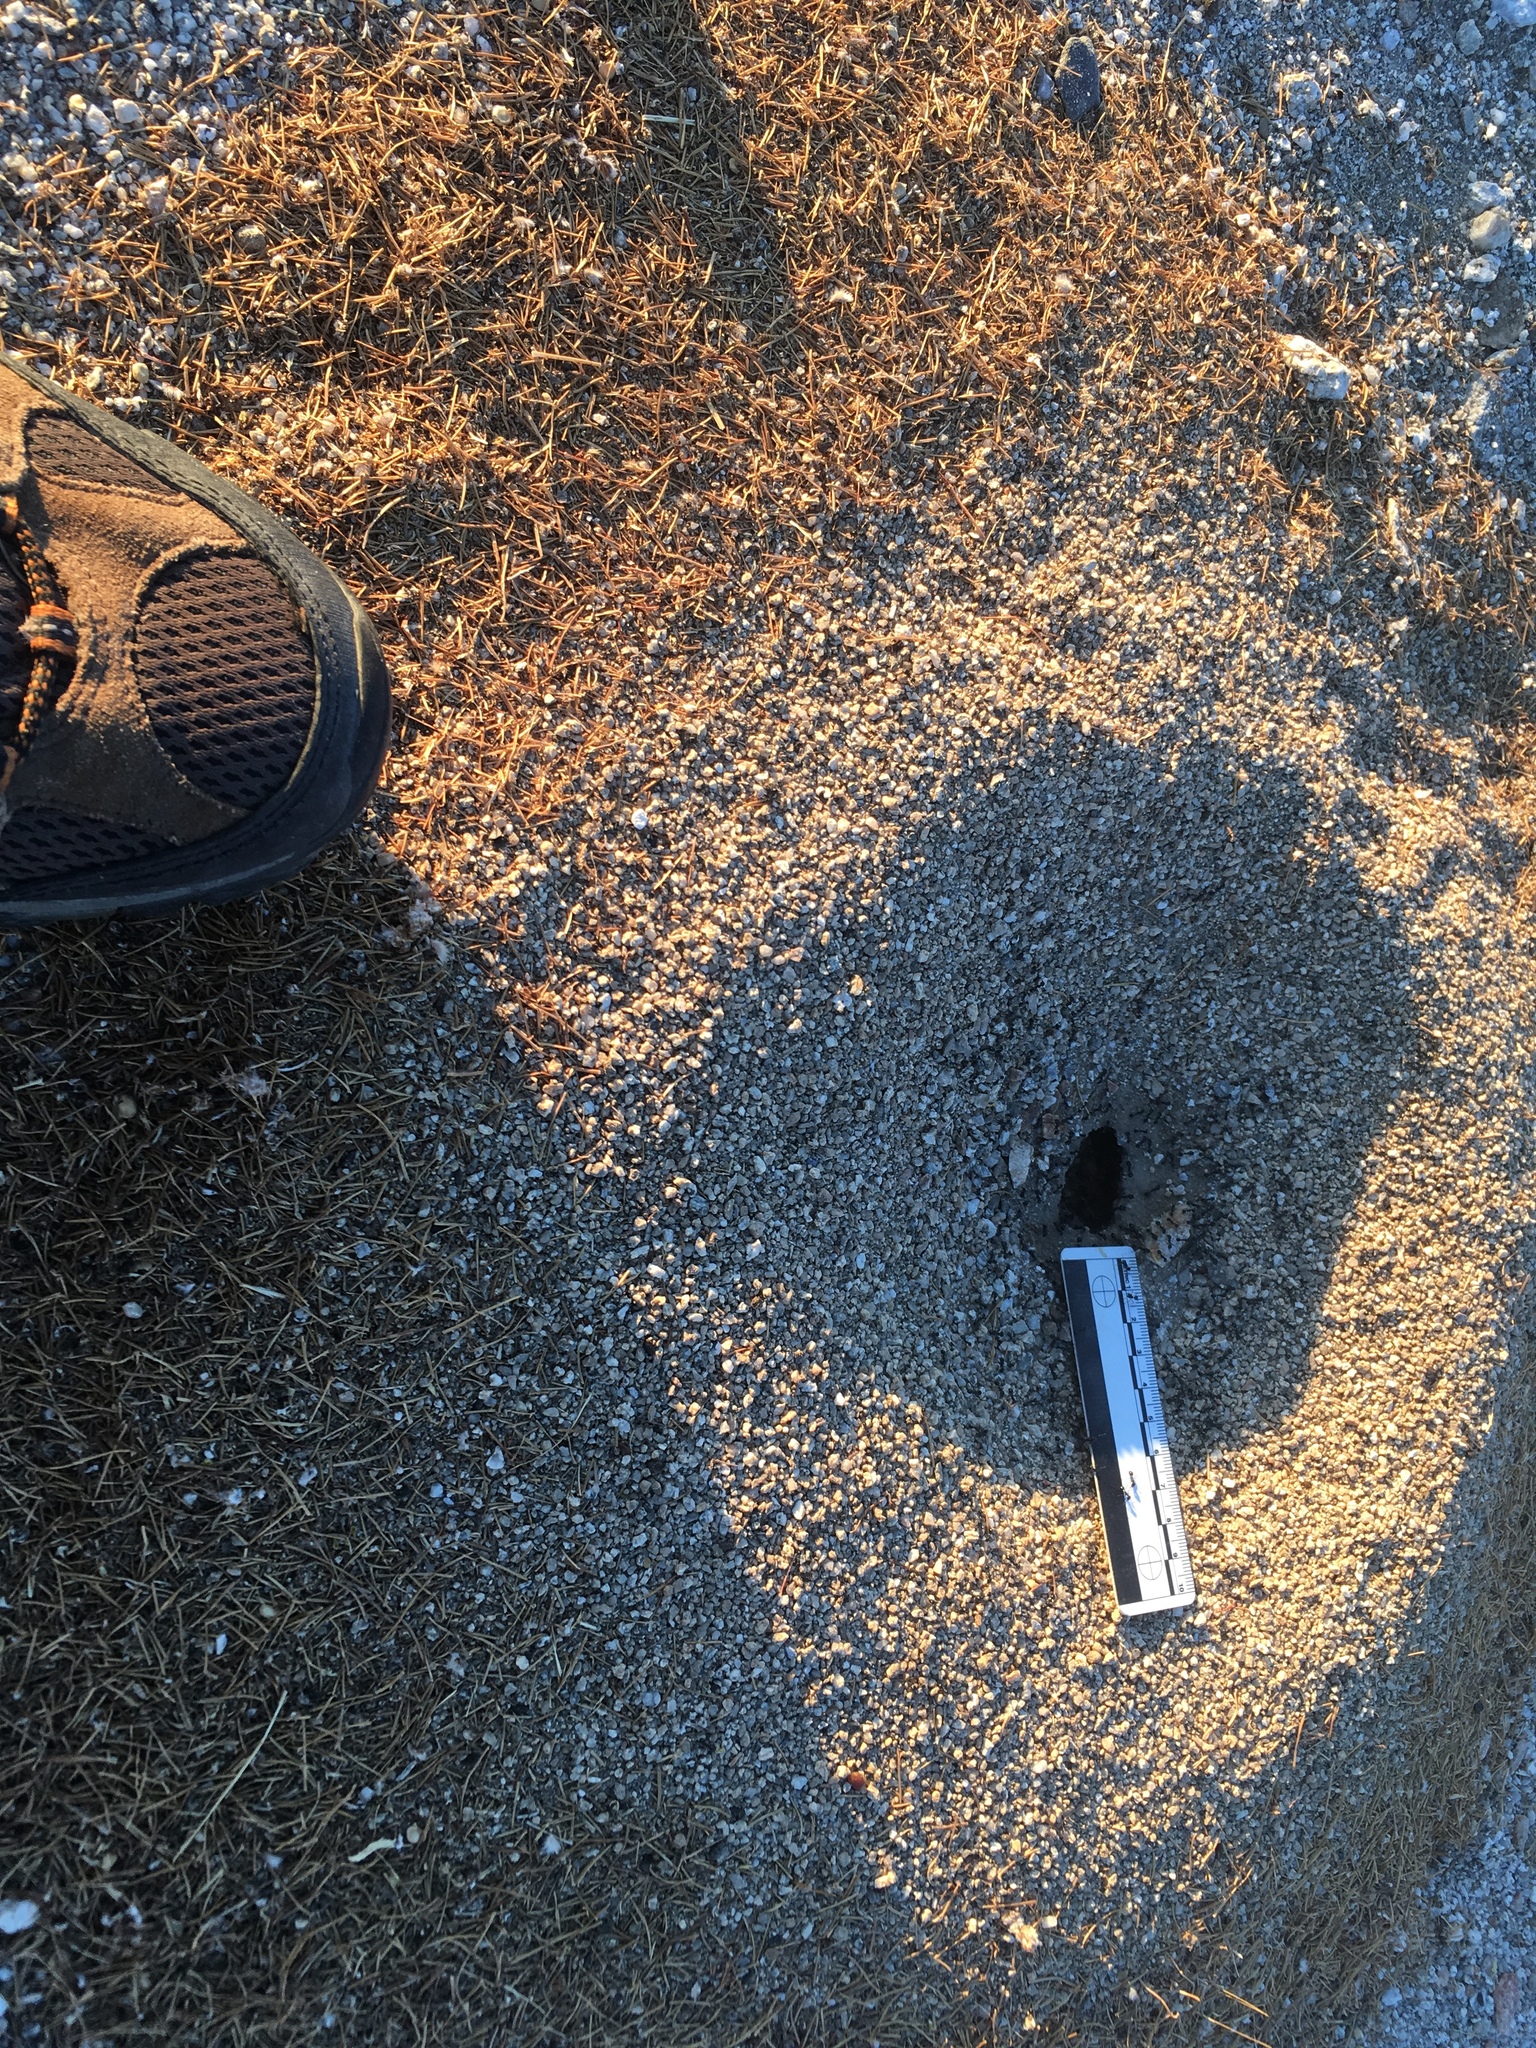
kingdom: Animalia
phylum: Arthropoda
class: Insecta
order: Hymenoptera
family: Formicidae
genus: Messor
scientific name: Messor pergandei
